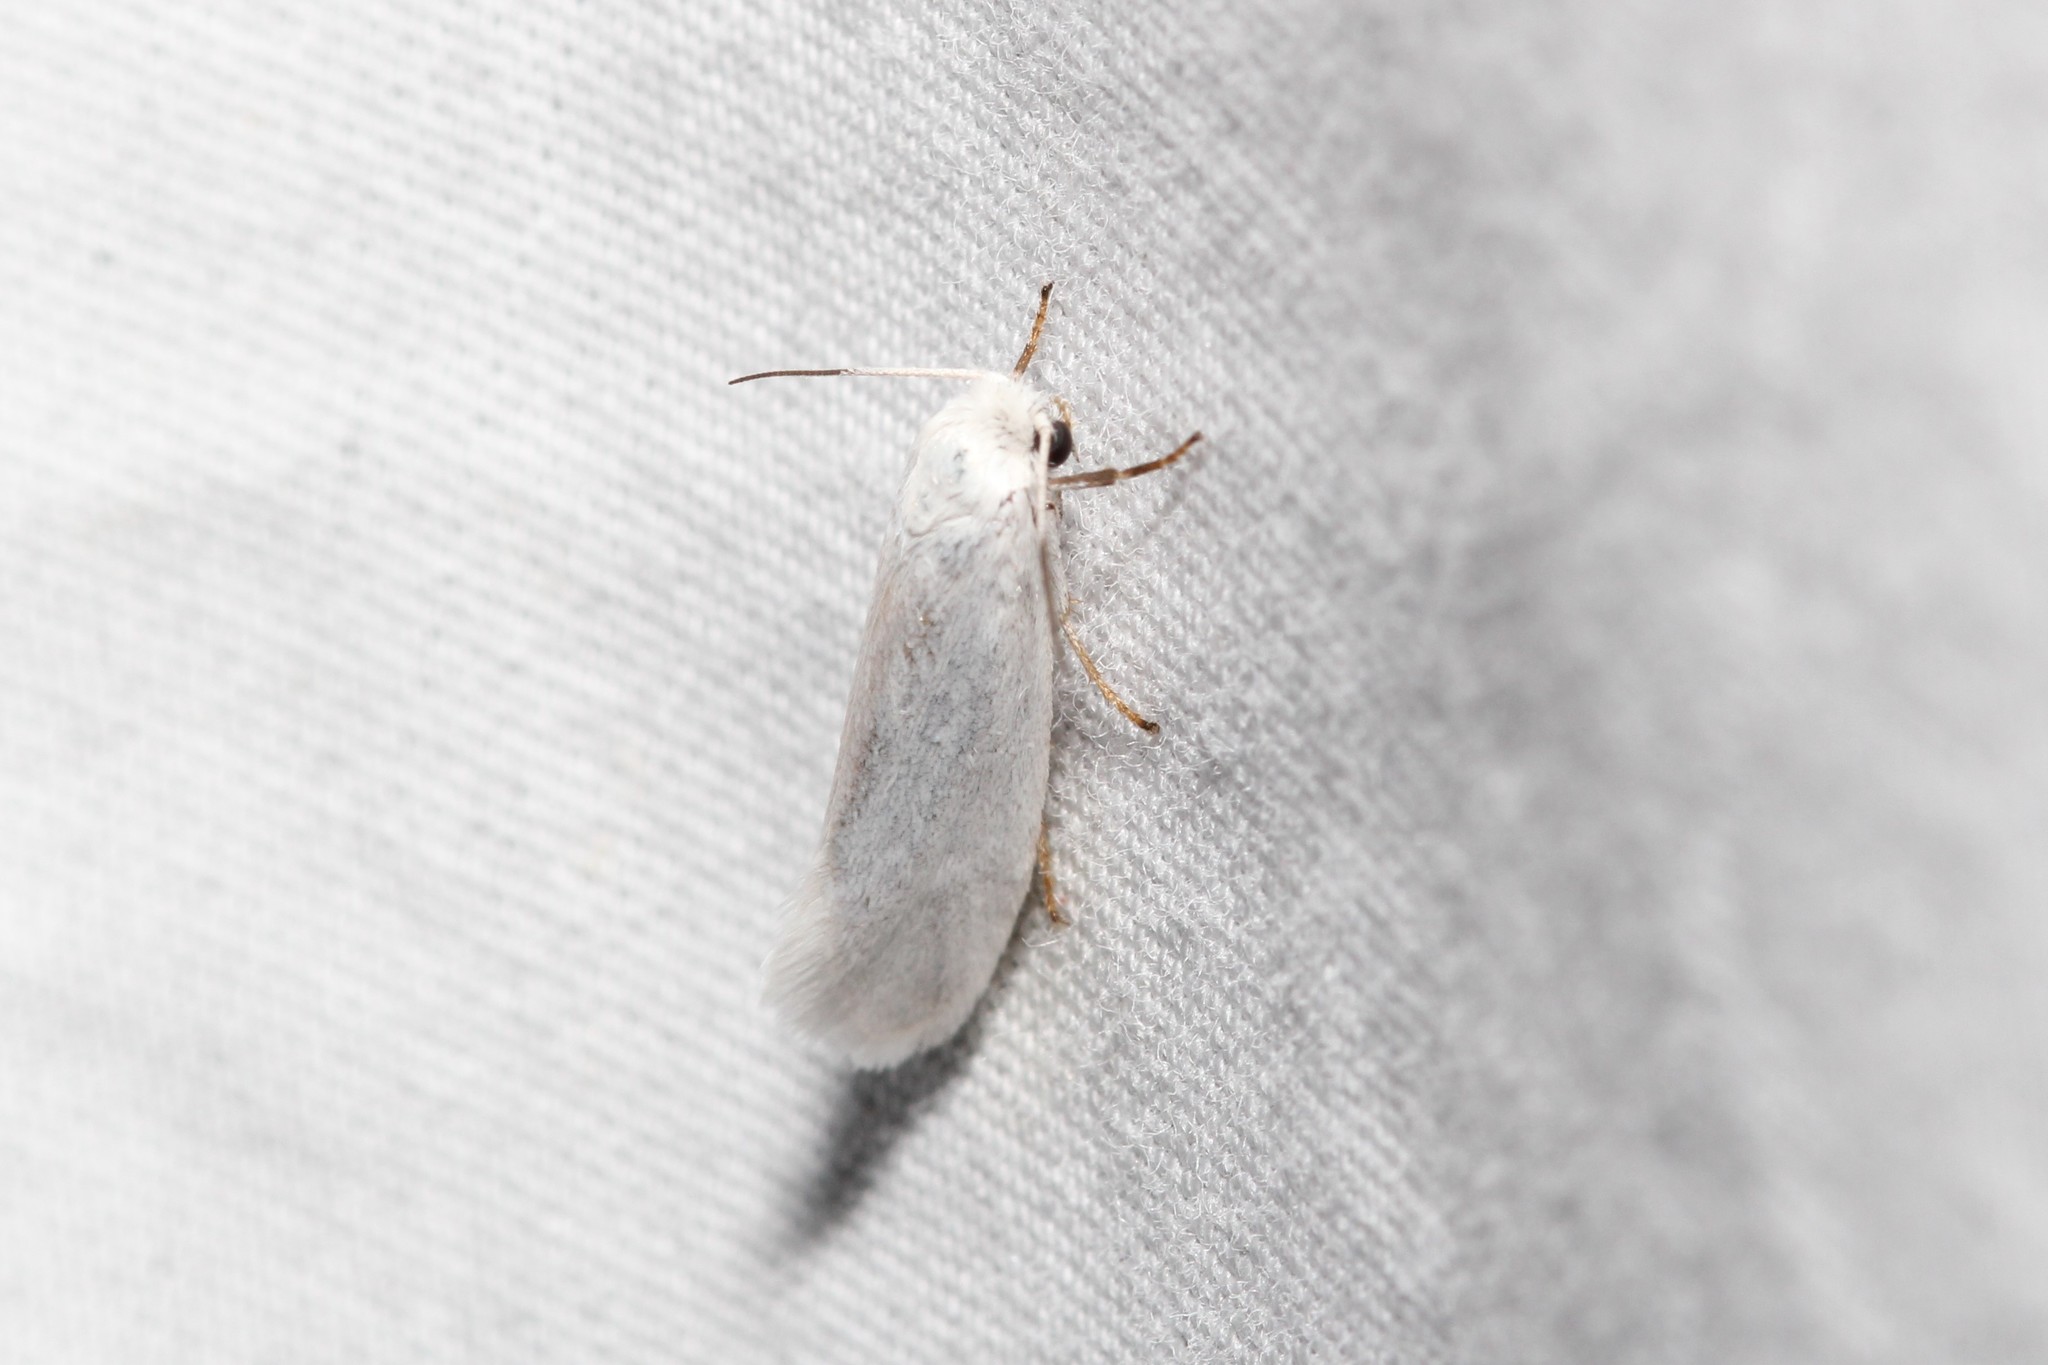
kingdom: Animalia
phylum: Arthropoda
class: Insecta
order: Lepidoptera
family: Prodoxidae
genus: Tegeticula
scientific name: Tegeticula yuccasella
